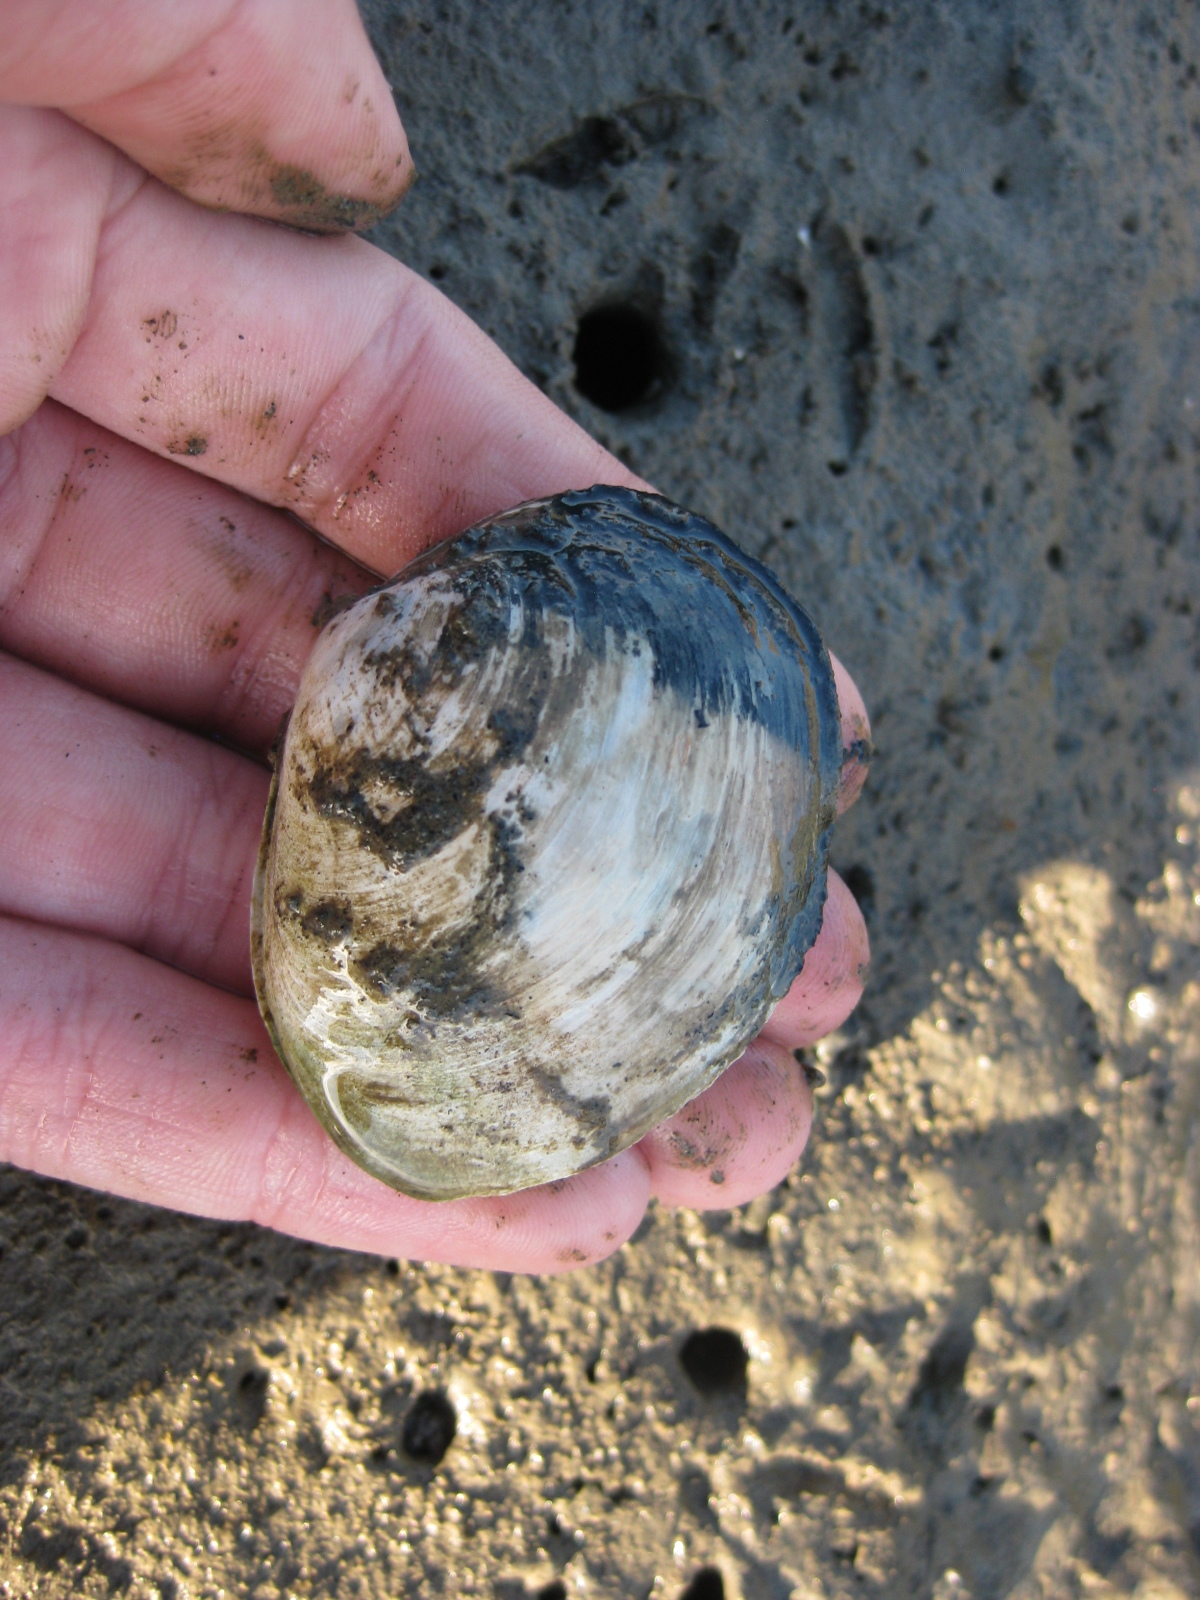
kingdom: Animalia
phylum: Mollusca
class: Bivalvia
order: Venerida
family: Mactridae
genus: Cyclomactra
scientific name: Cyclomactra tristis
